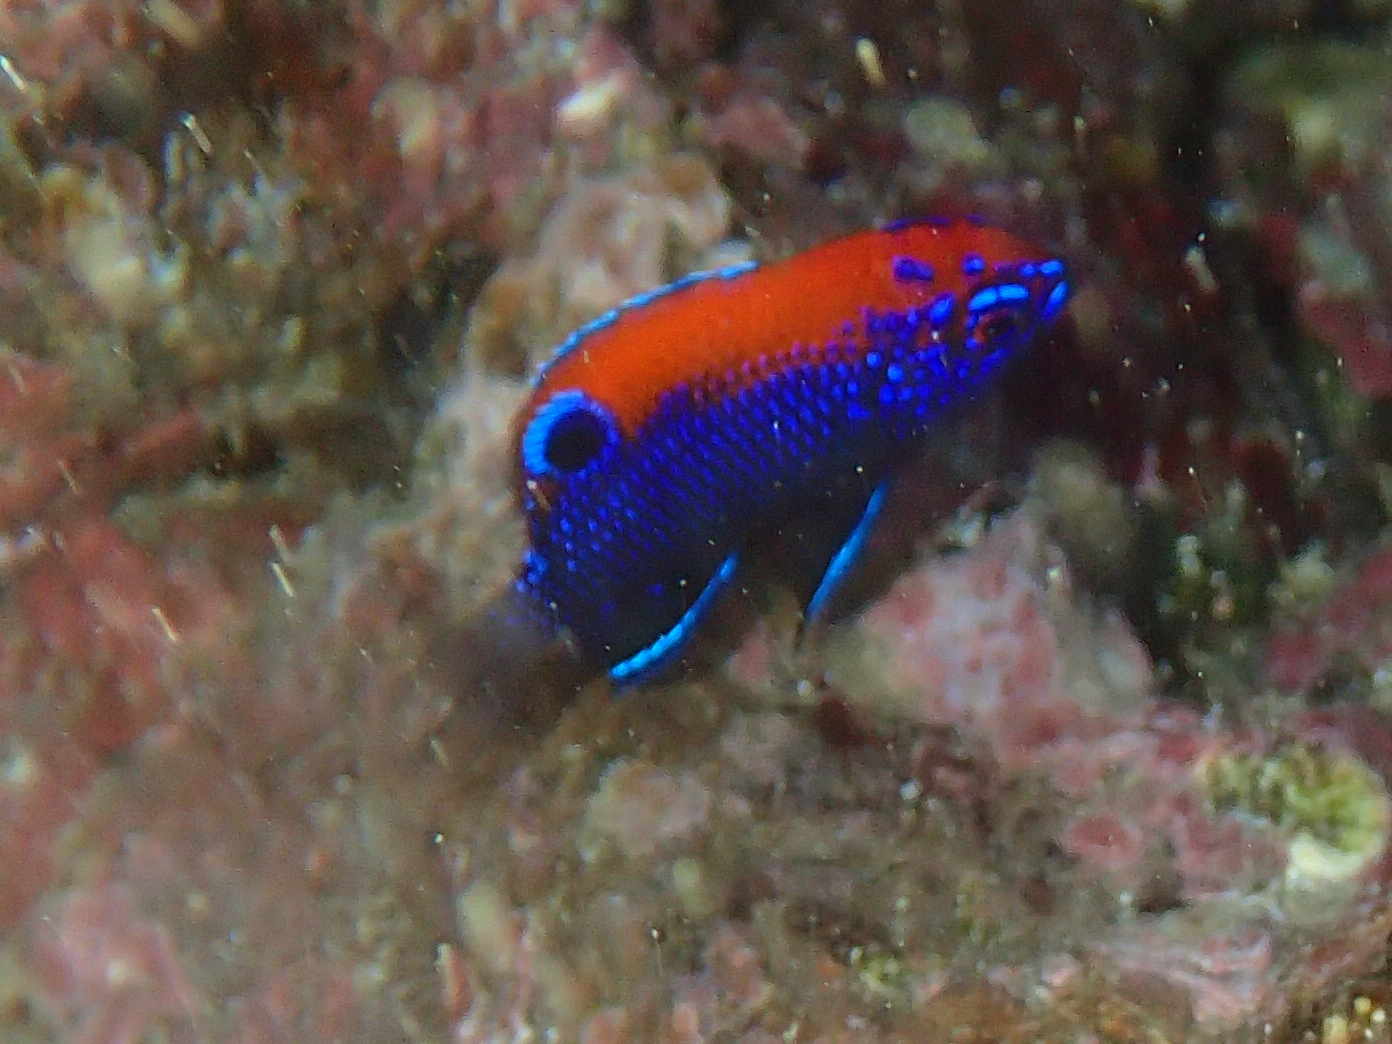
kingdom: Animalia
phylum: Chordata
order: Perciformes
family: Pomacentridae
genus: Stegastes
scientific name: Stegastes beebei
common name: Galapagos ringtail damselfish
